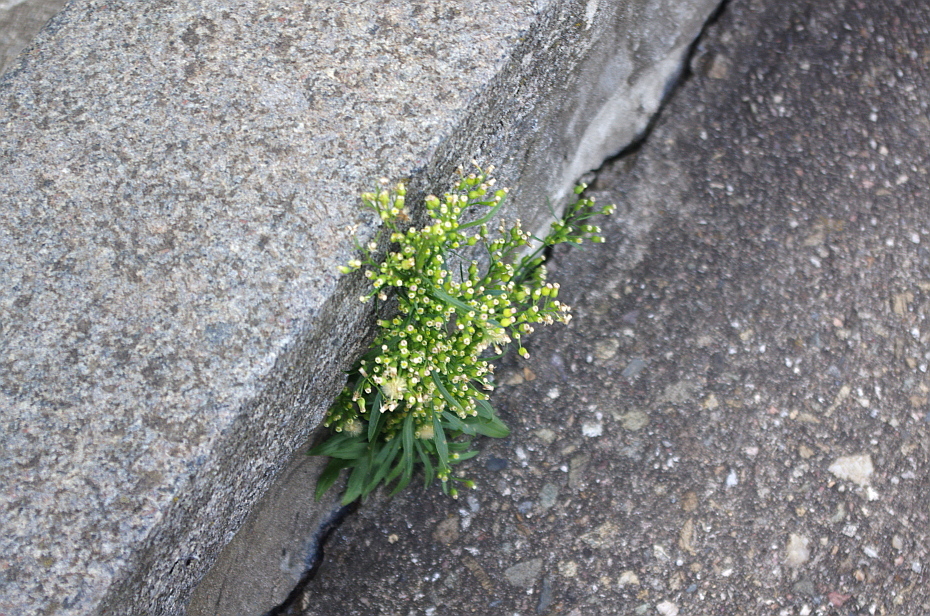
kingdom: Plantae
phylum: Tracheophyta
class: Magnoliopsida
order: Asterales
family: Asteraceae
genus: Erigeron
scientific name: Erigeron canadensis
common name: Canadian fleabane
